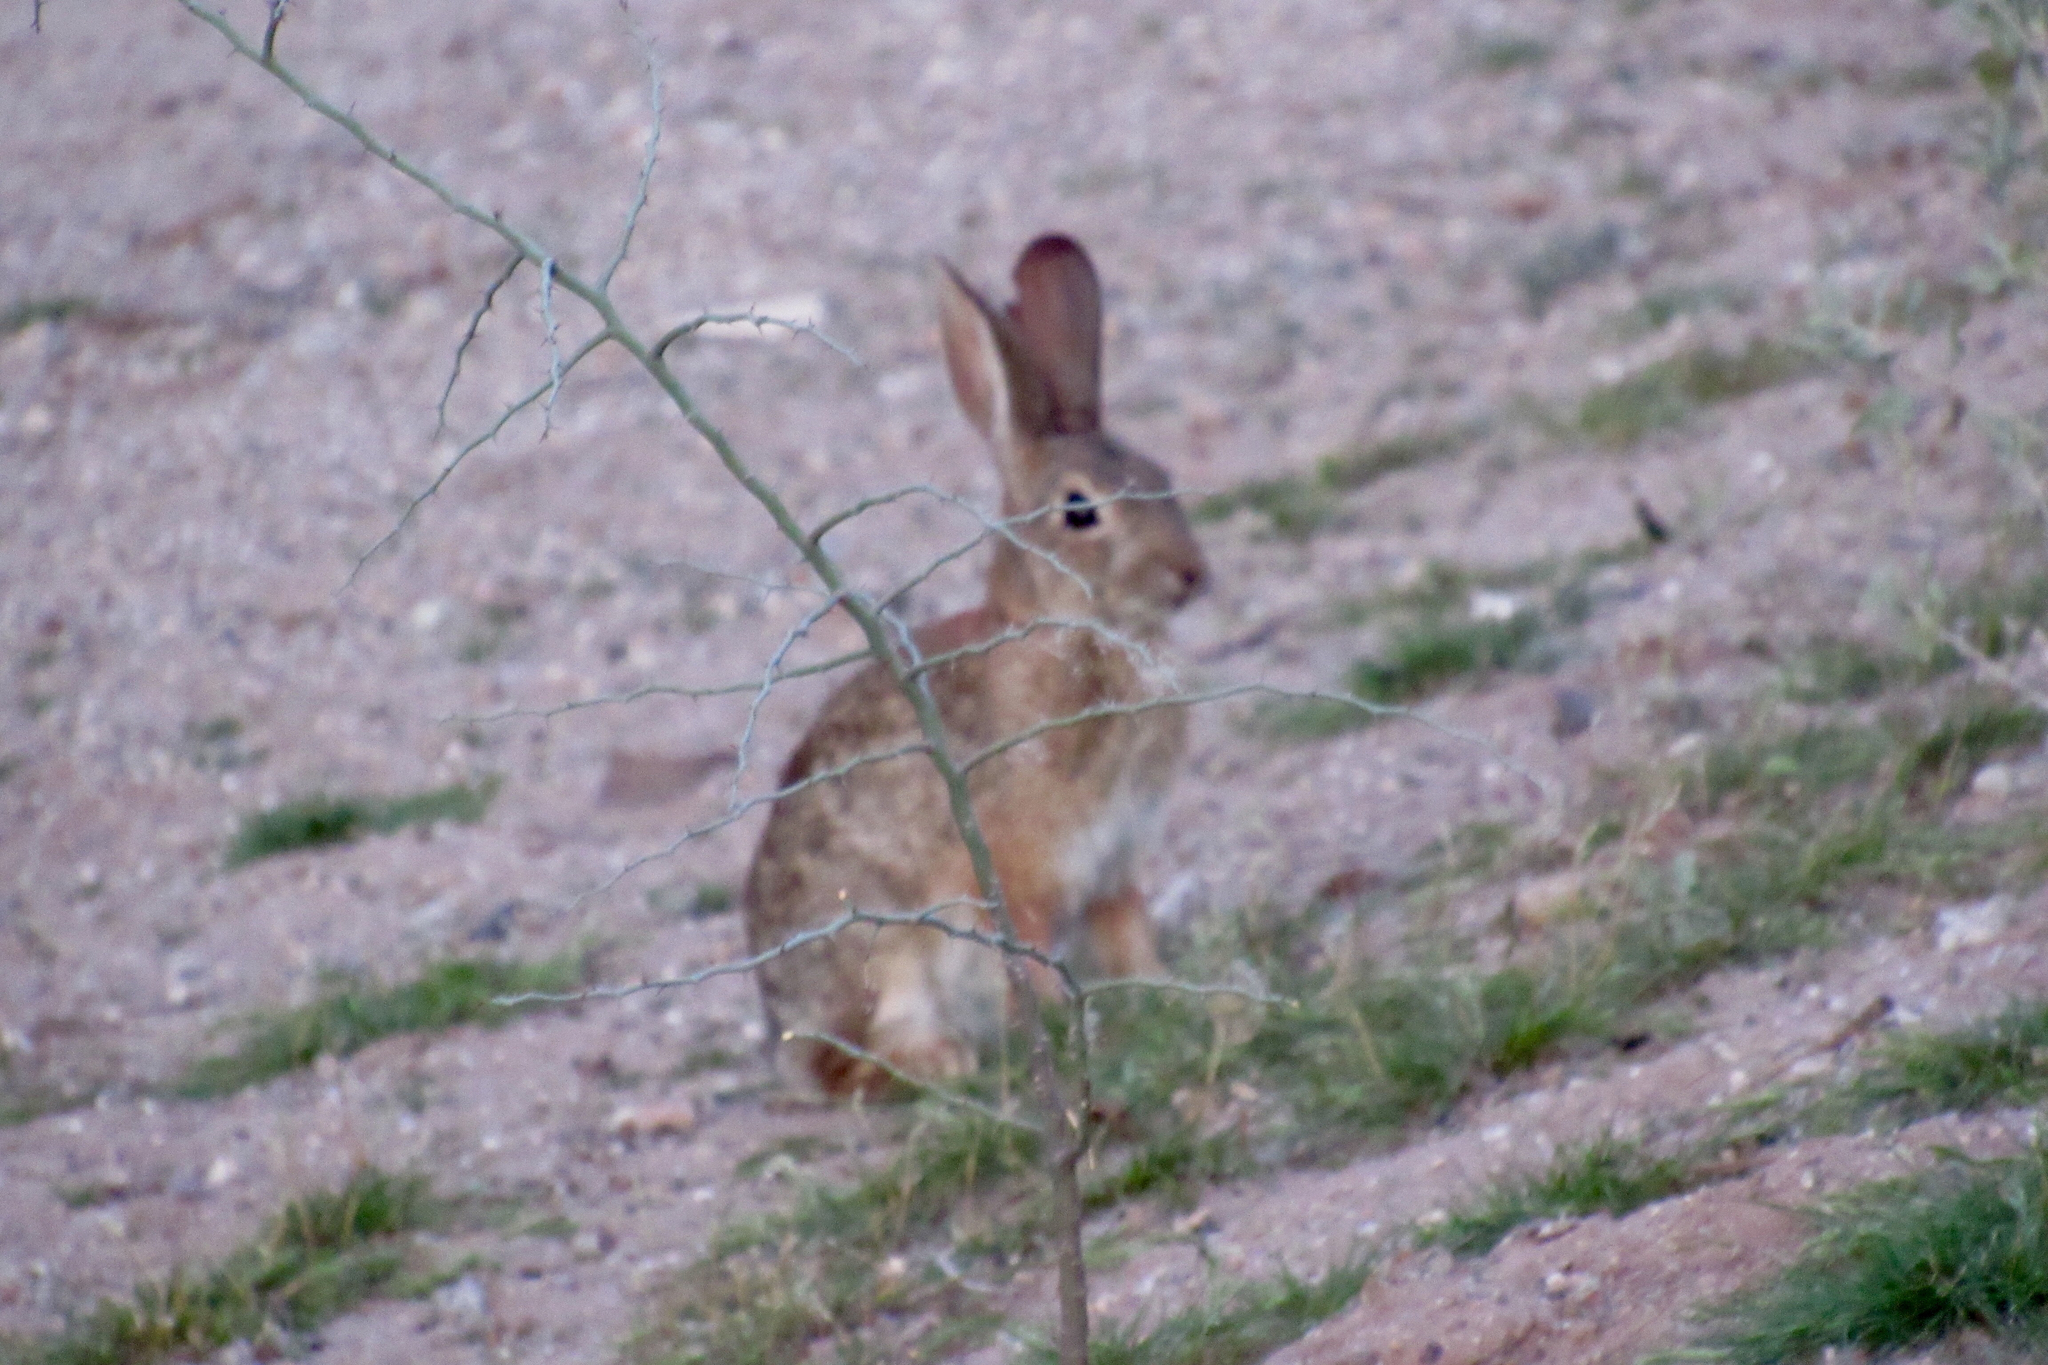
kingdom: Animalia
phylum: Chordata
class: Mammalia
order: Lagomorpha
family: Leporidae
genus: Sylvilagus
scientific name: Sylvilagus audubonii
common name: Desert cottontail
